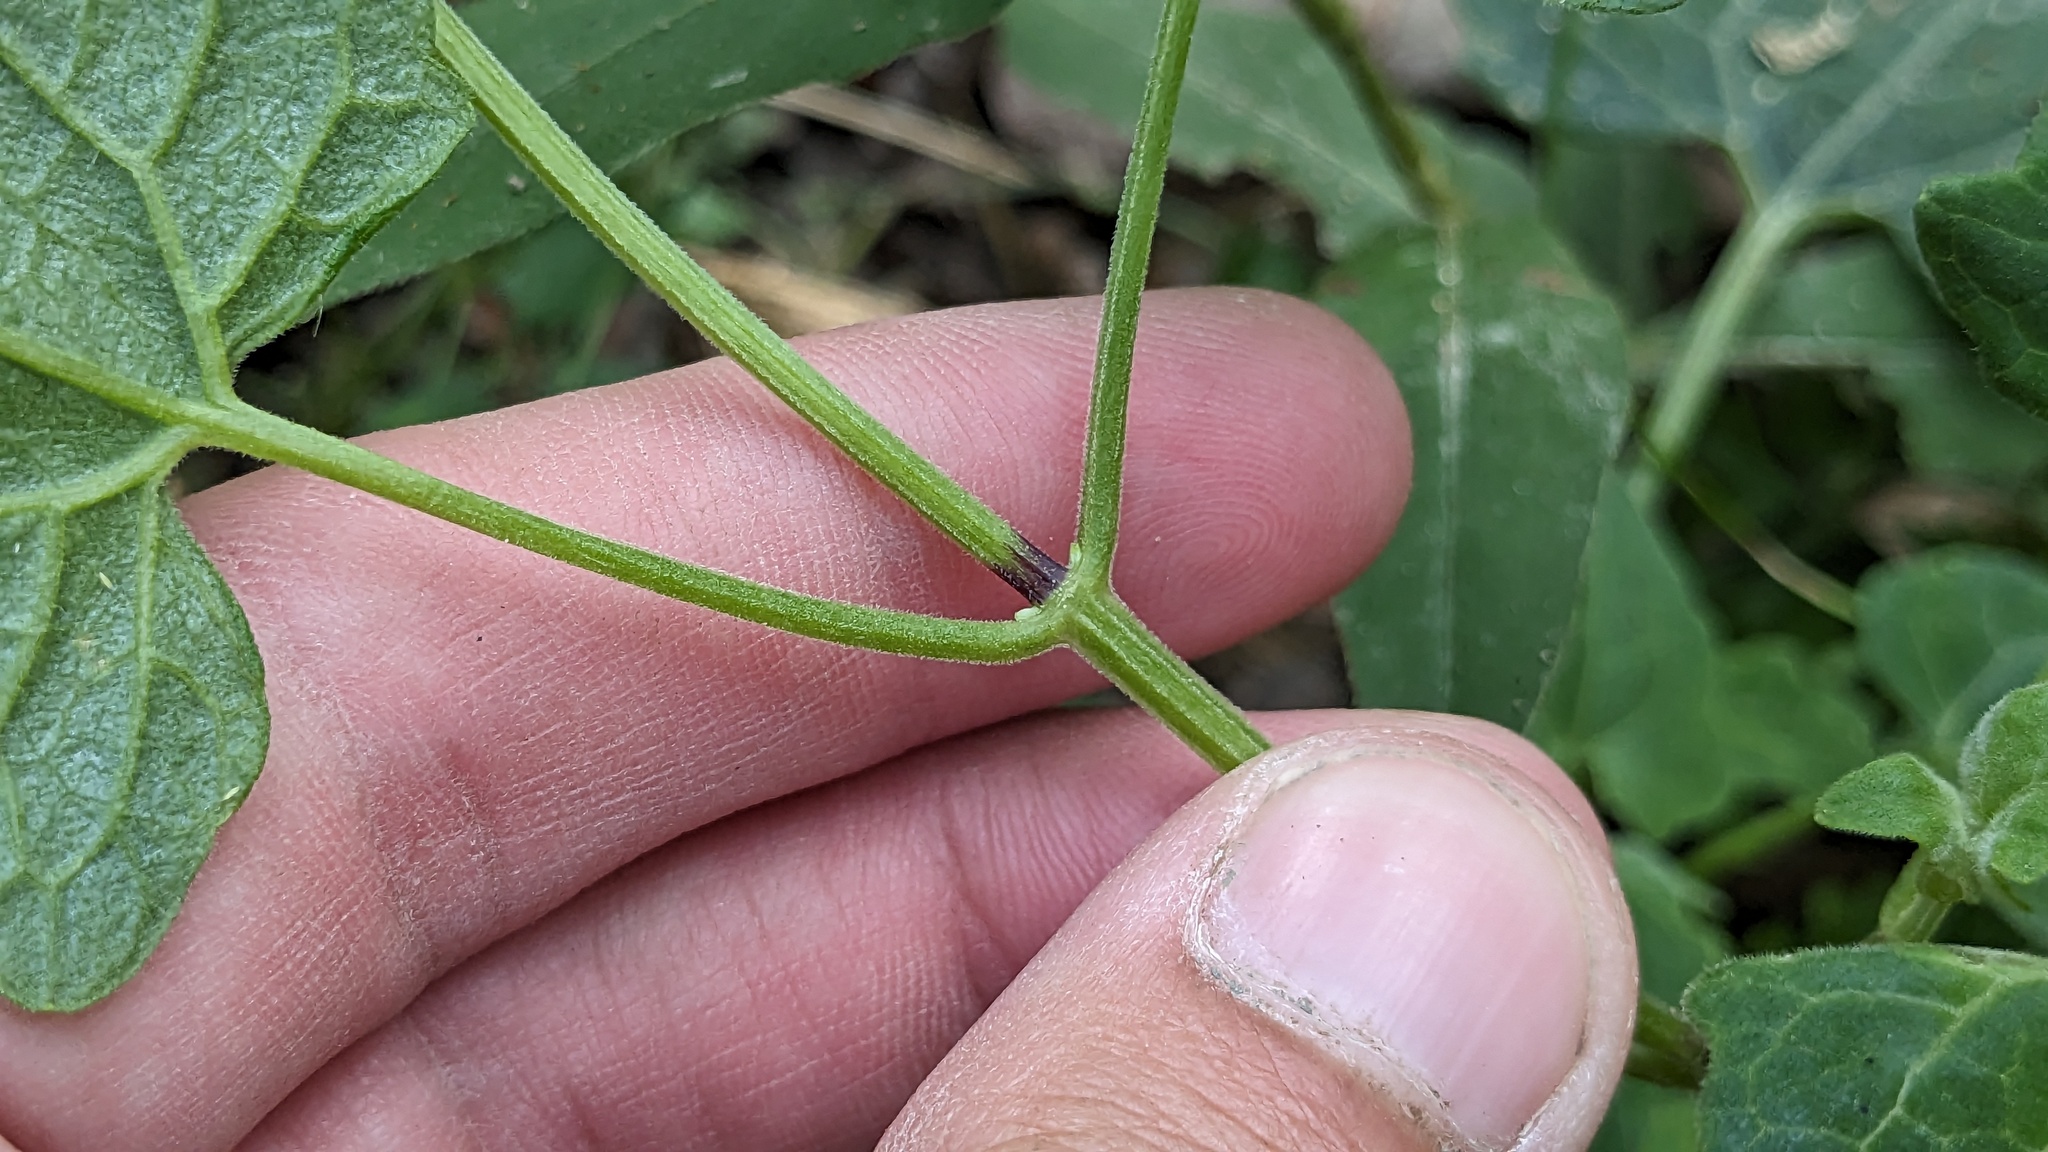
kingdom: Plantae
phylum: Tracheophyta
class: Magnoliopsida
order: Asterales
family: Asteraceae
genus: Mikania
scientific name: Mikania cordifolia
